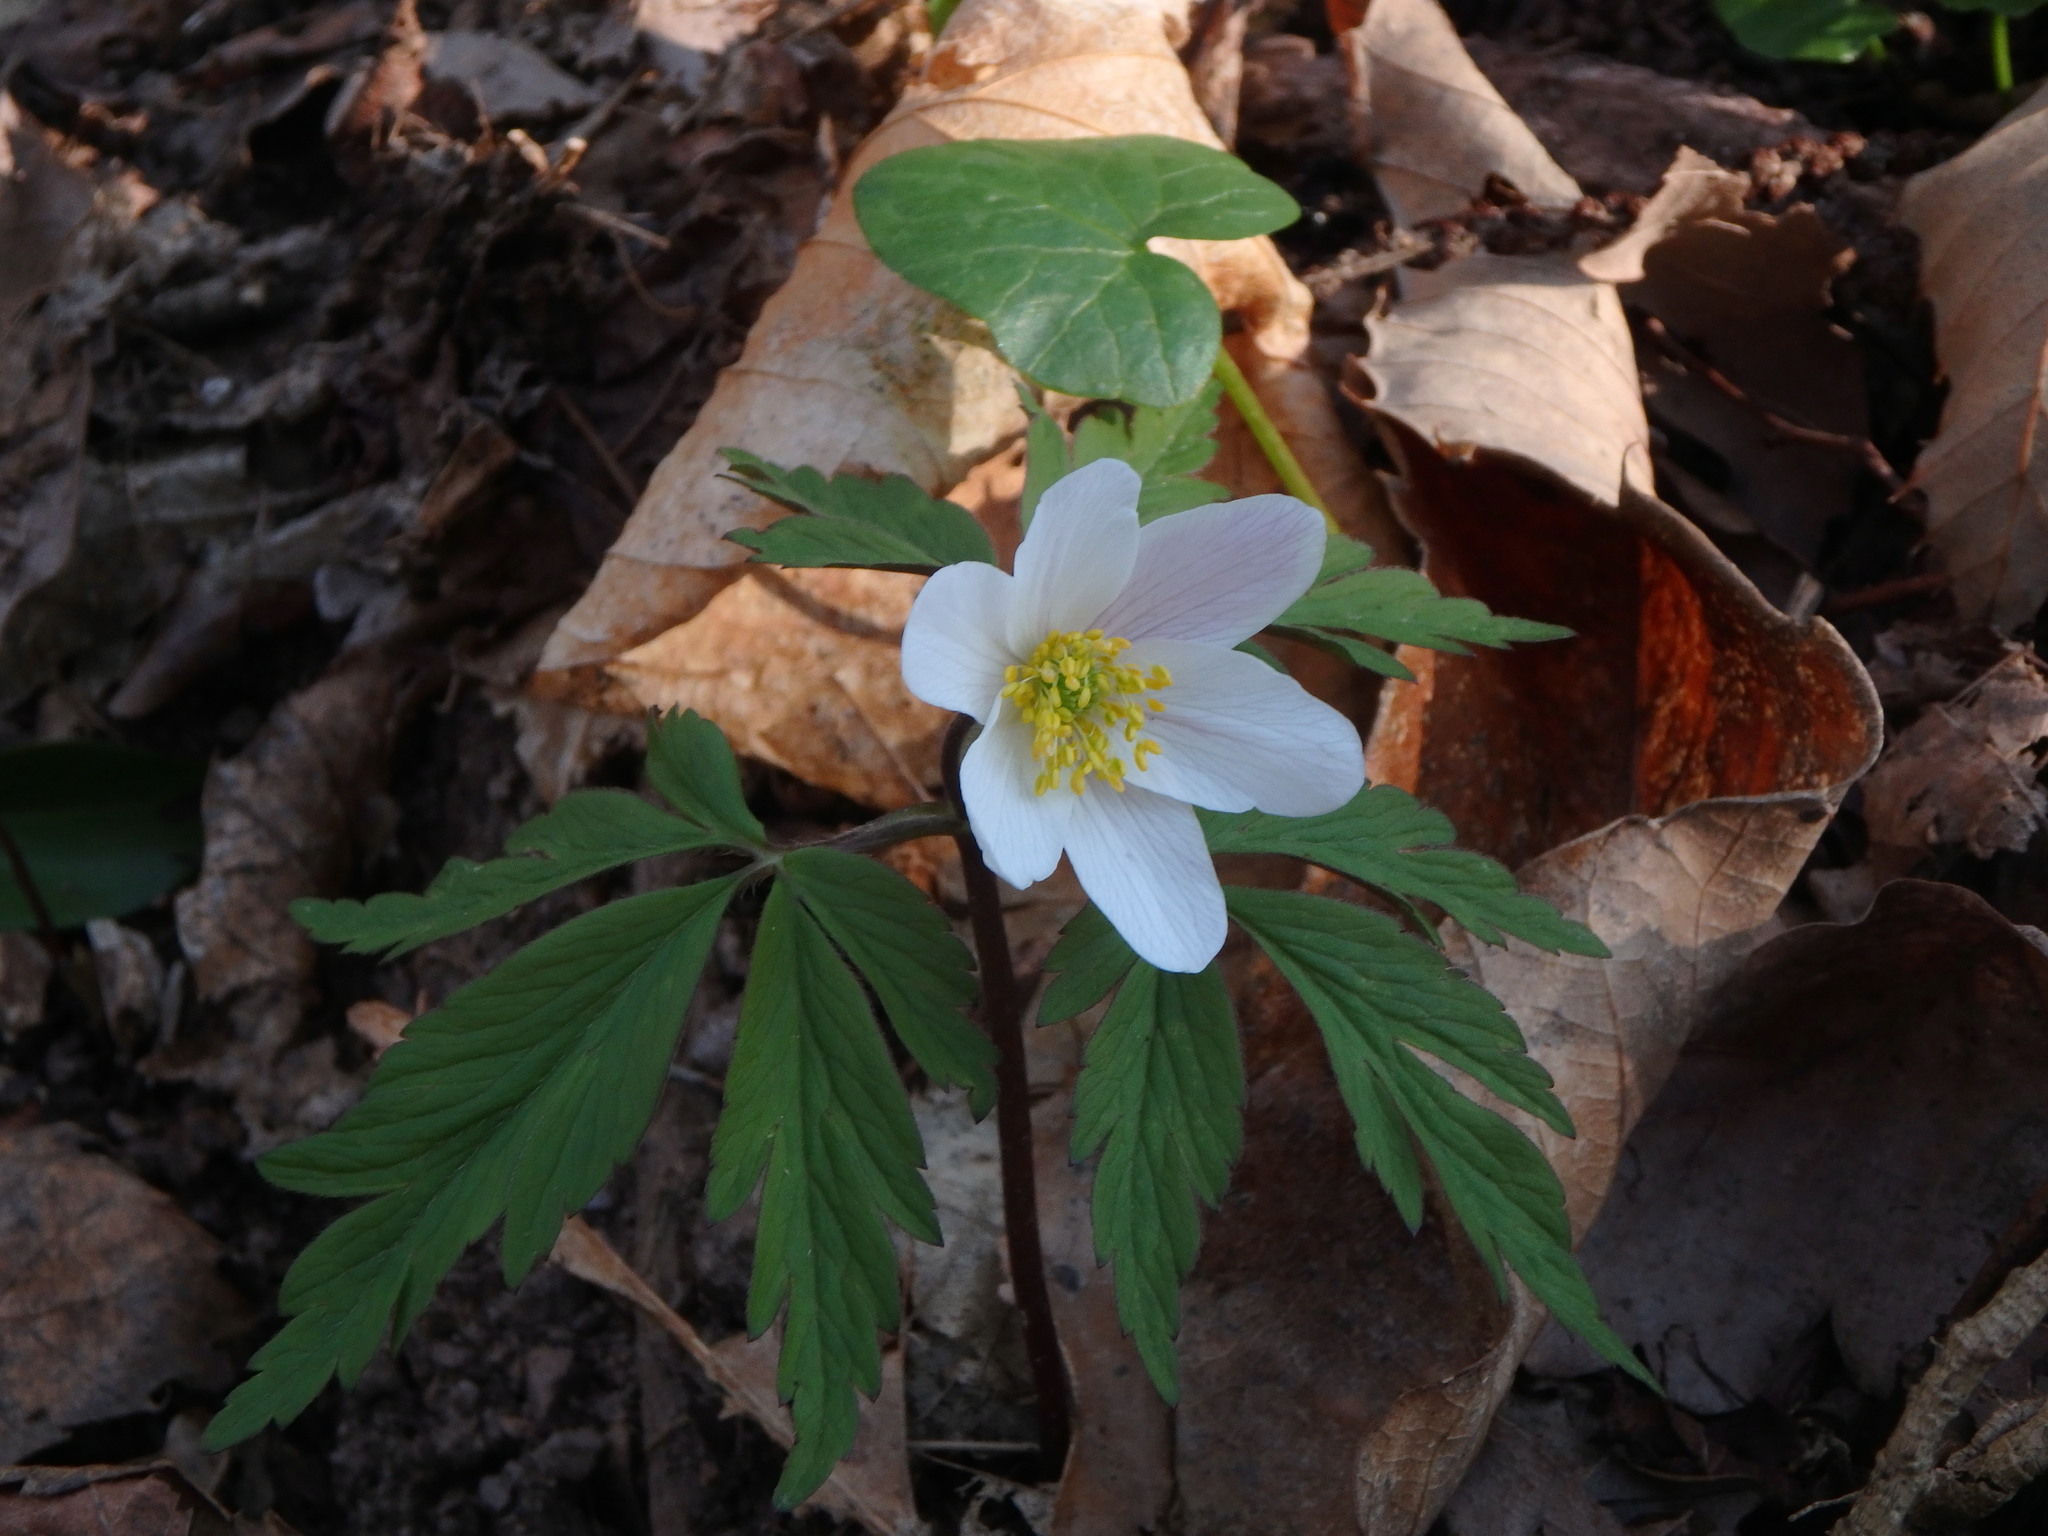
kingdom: Plantae
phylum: Tracheophyta
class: Magnoliopsida
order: Ranunculales
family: Ranunculaceae
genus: Anemone
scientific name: Anemone nemorosa
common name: Wood anemone
